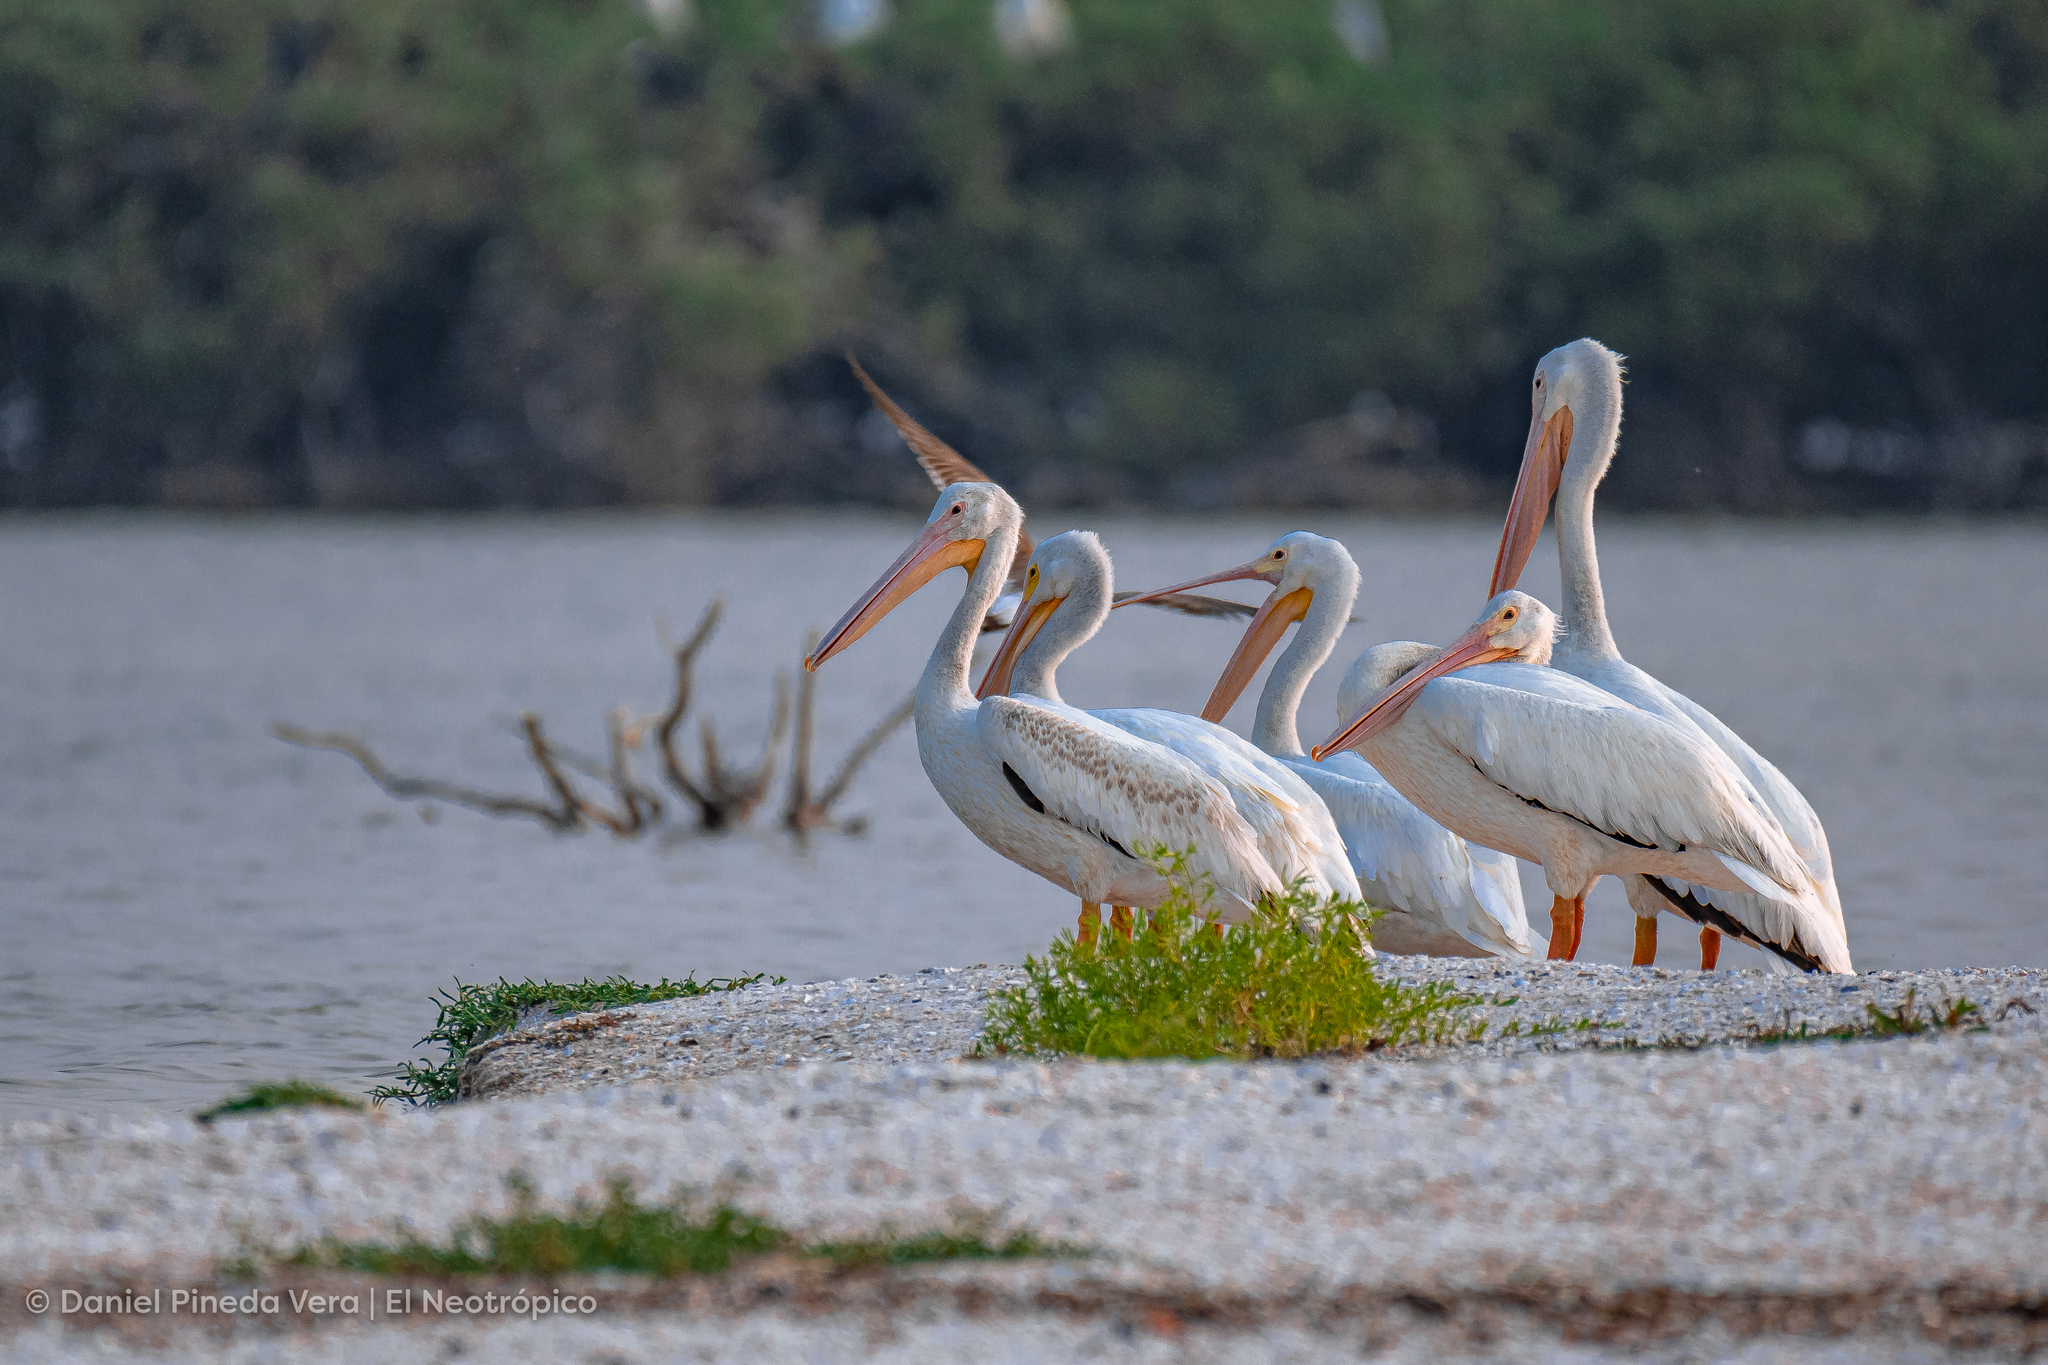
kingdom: Animalia
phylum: Chordata
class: Aves
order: Pelecaniformes
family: Pelecanidae
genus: Pelecanus
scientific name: Pelecanus erythrorhynchos
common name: American white pelican
